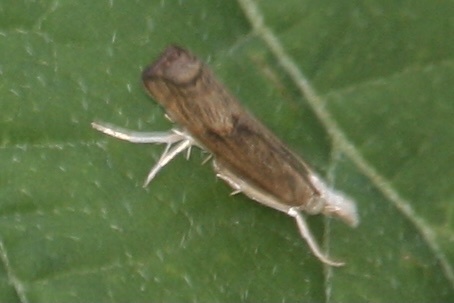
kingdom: Animalia
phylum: Arthropoda
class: Insecta
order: Lepidoptera
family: Crambidae
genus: Parapediasia
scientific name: Parapediasia teterellus
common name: Bluegrass webworm moth
